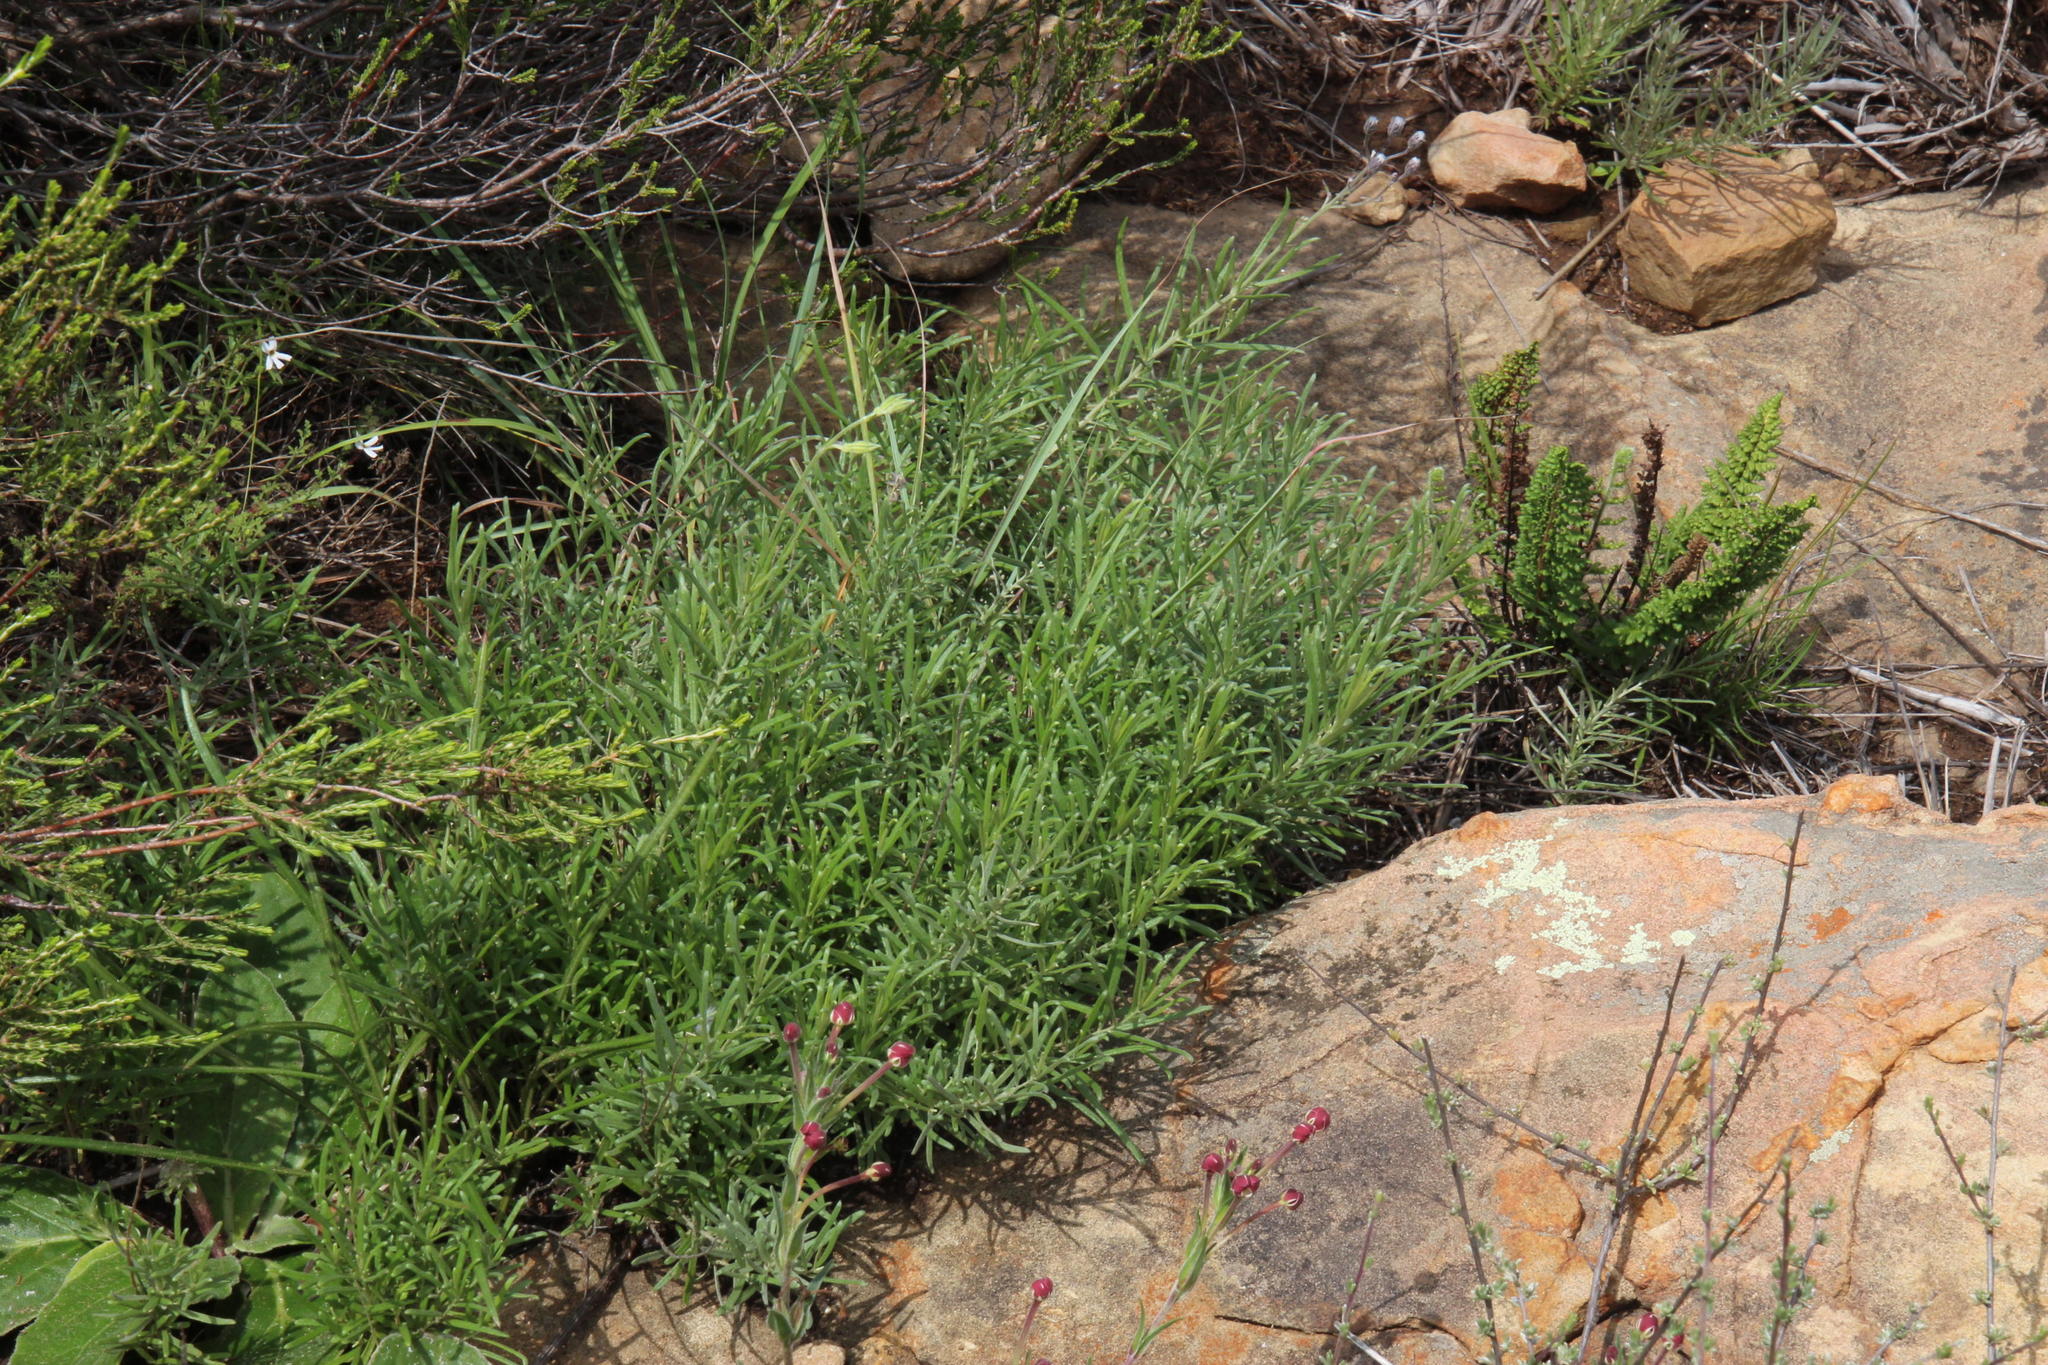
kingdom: Plantae
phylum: Tracheophyta
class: Magnoliopsida
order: Asterales
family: Asteraceae
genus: Hilliardiella
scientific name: Hilliardiella capensis
